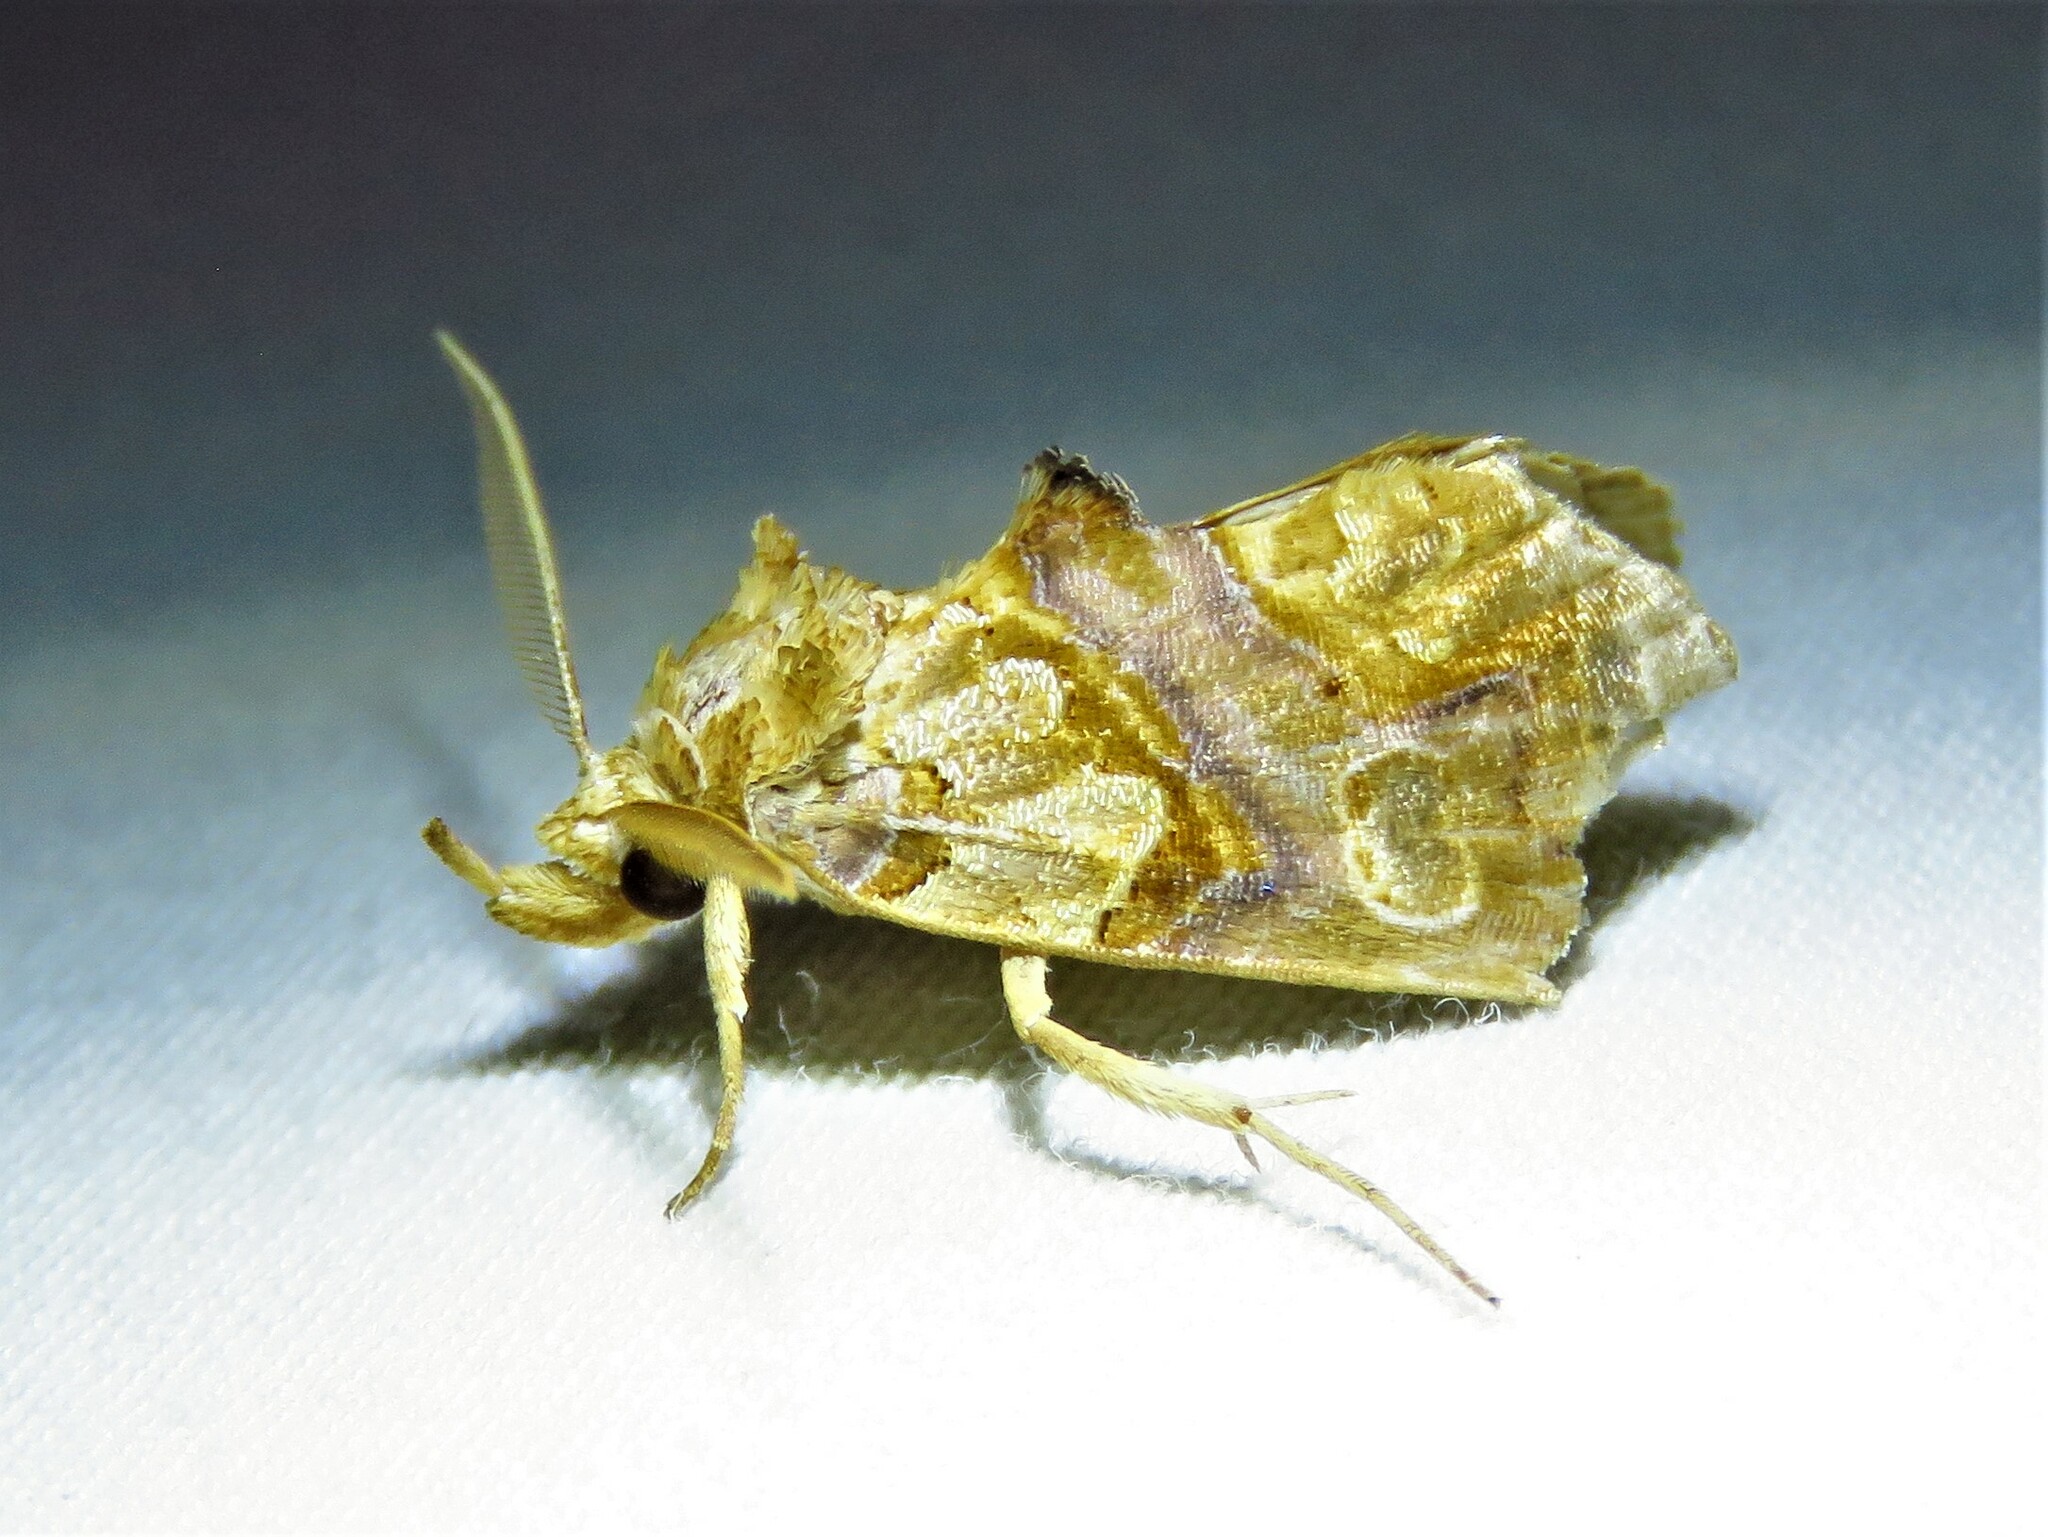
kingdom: Animalia
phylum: Arthropoda
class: Insecta
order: Lepidoptera
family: Erebidae
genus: Plusiodonta
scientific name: Plusiodonta compressipalpis
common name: Moonseed moth
